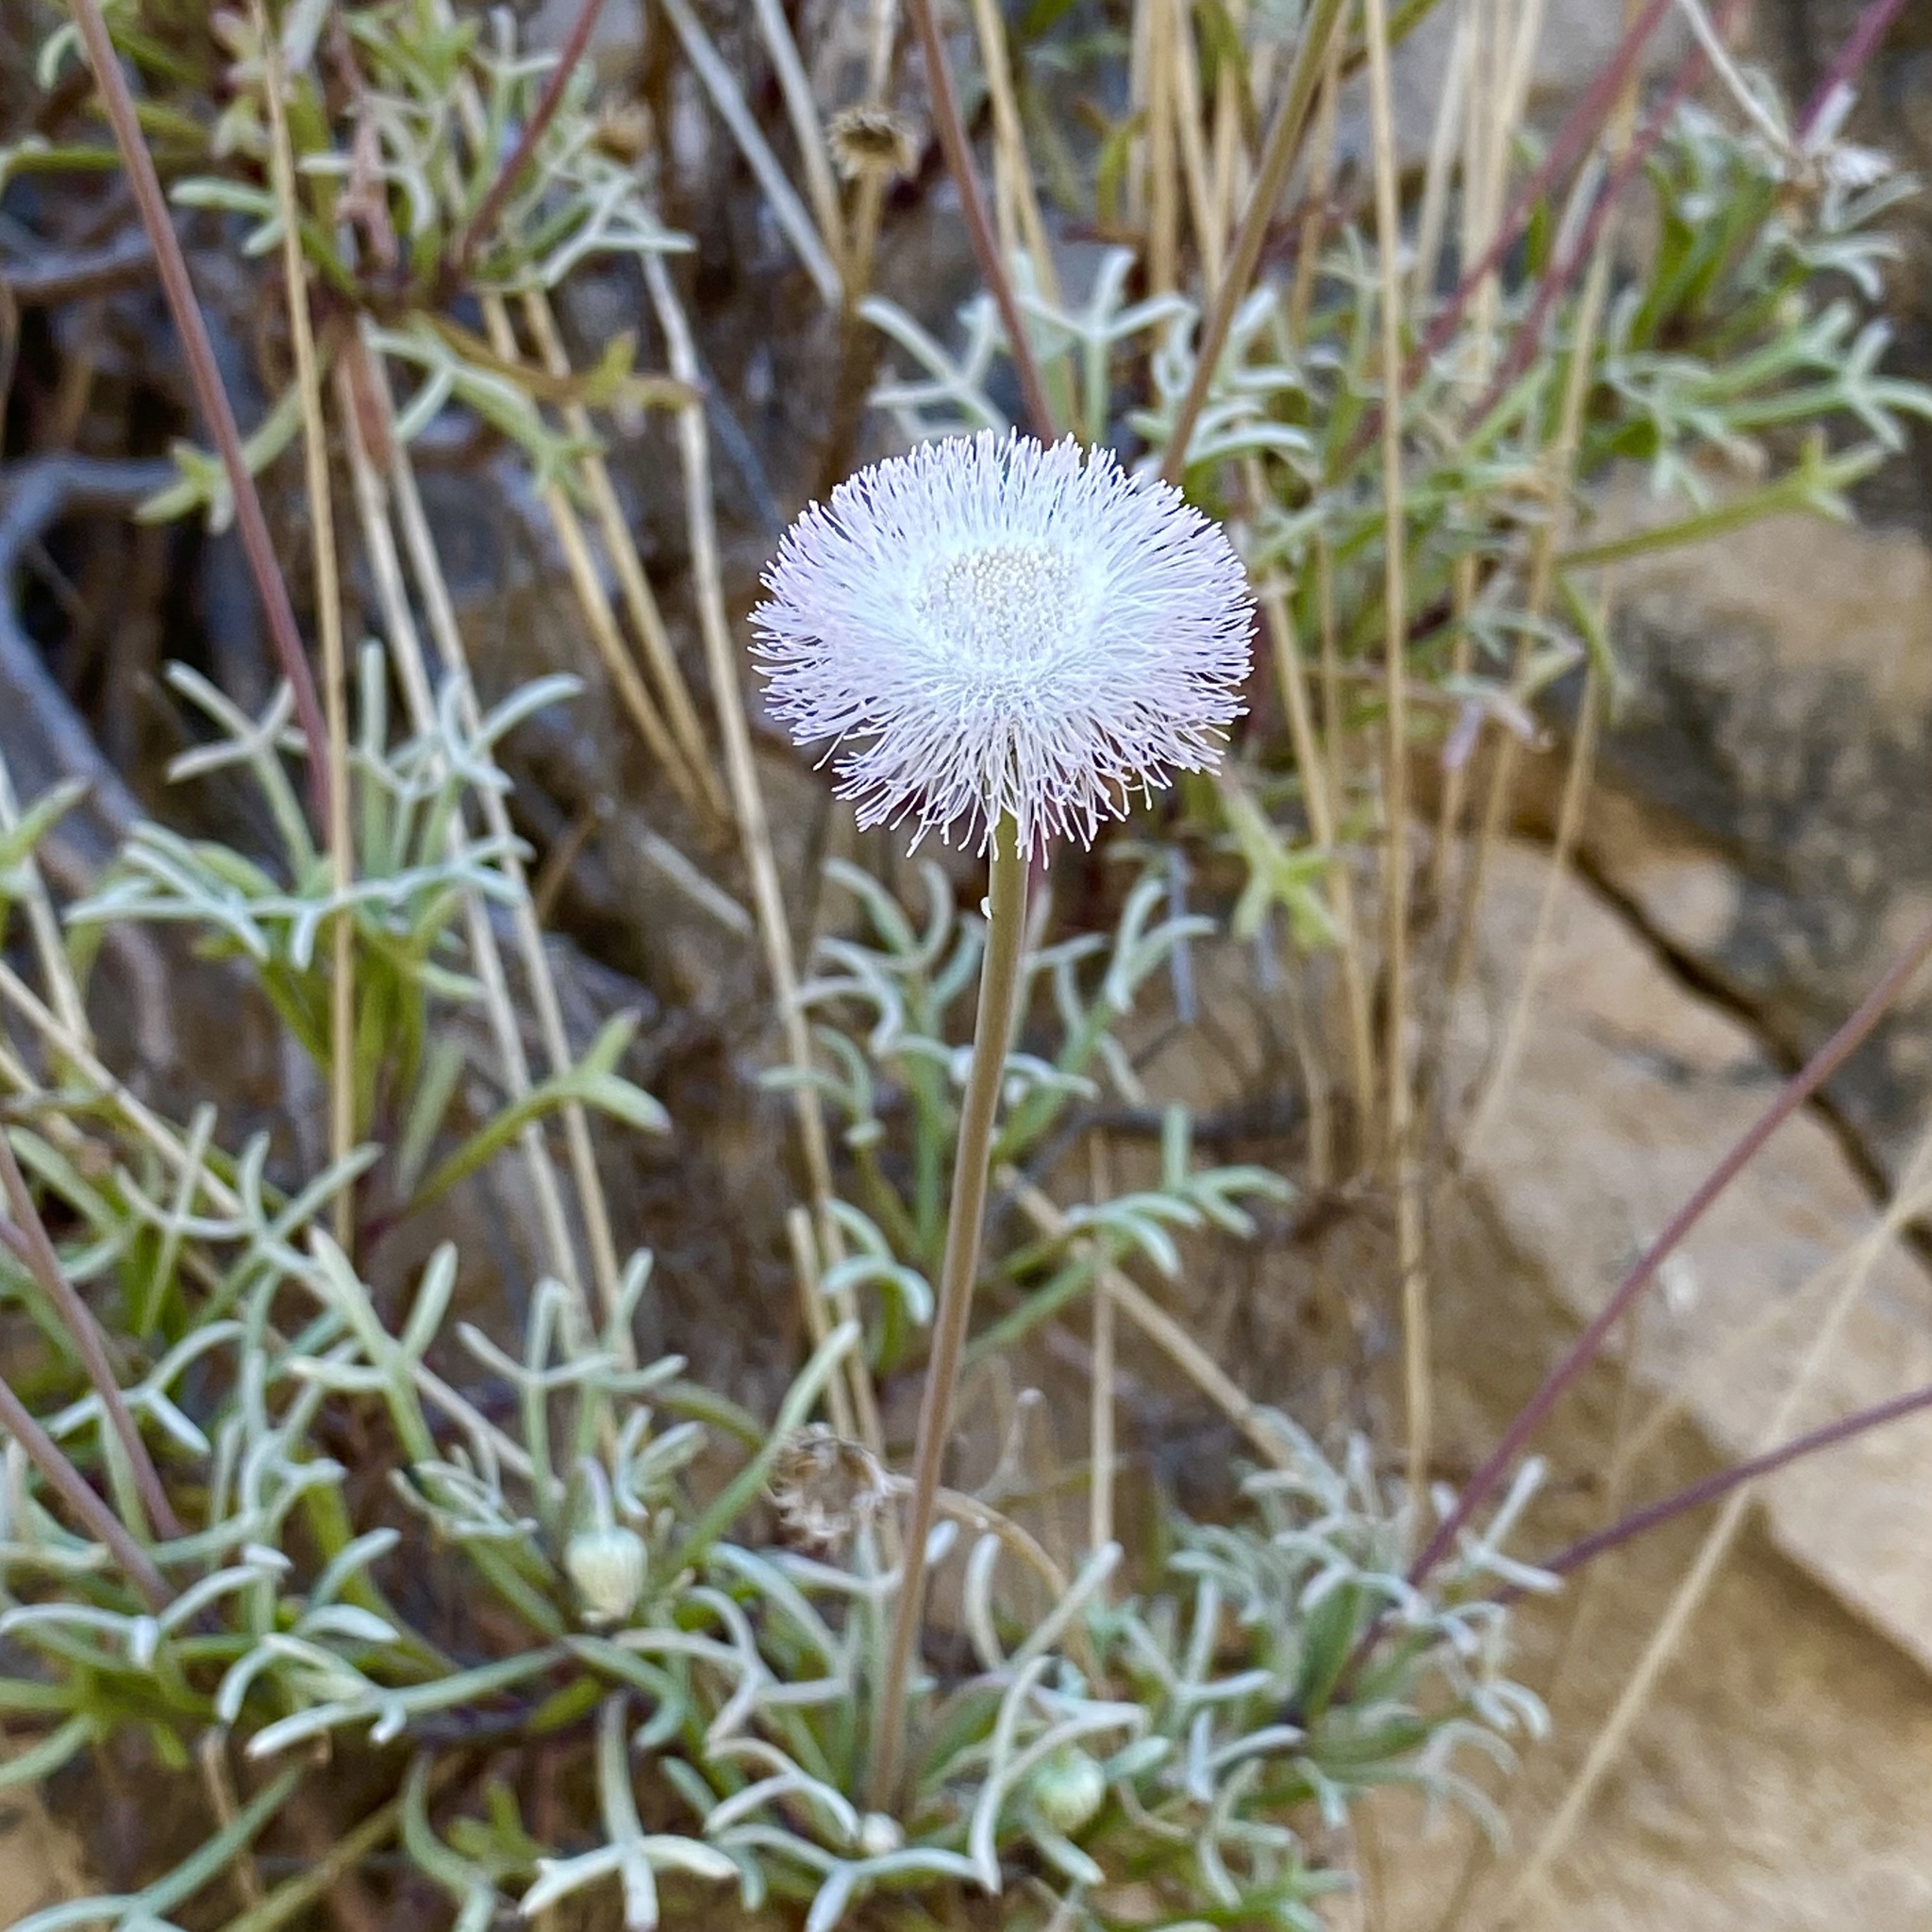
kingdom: Plantae
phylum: Tracheophyta
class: Magnoliopsida
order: Asterales
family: Asteraceae
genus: Hofmeisteria
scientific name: Hofmeisteria crassifolia
